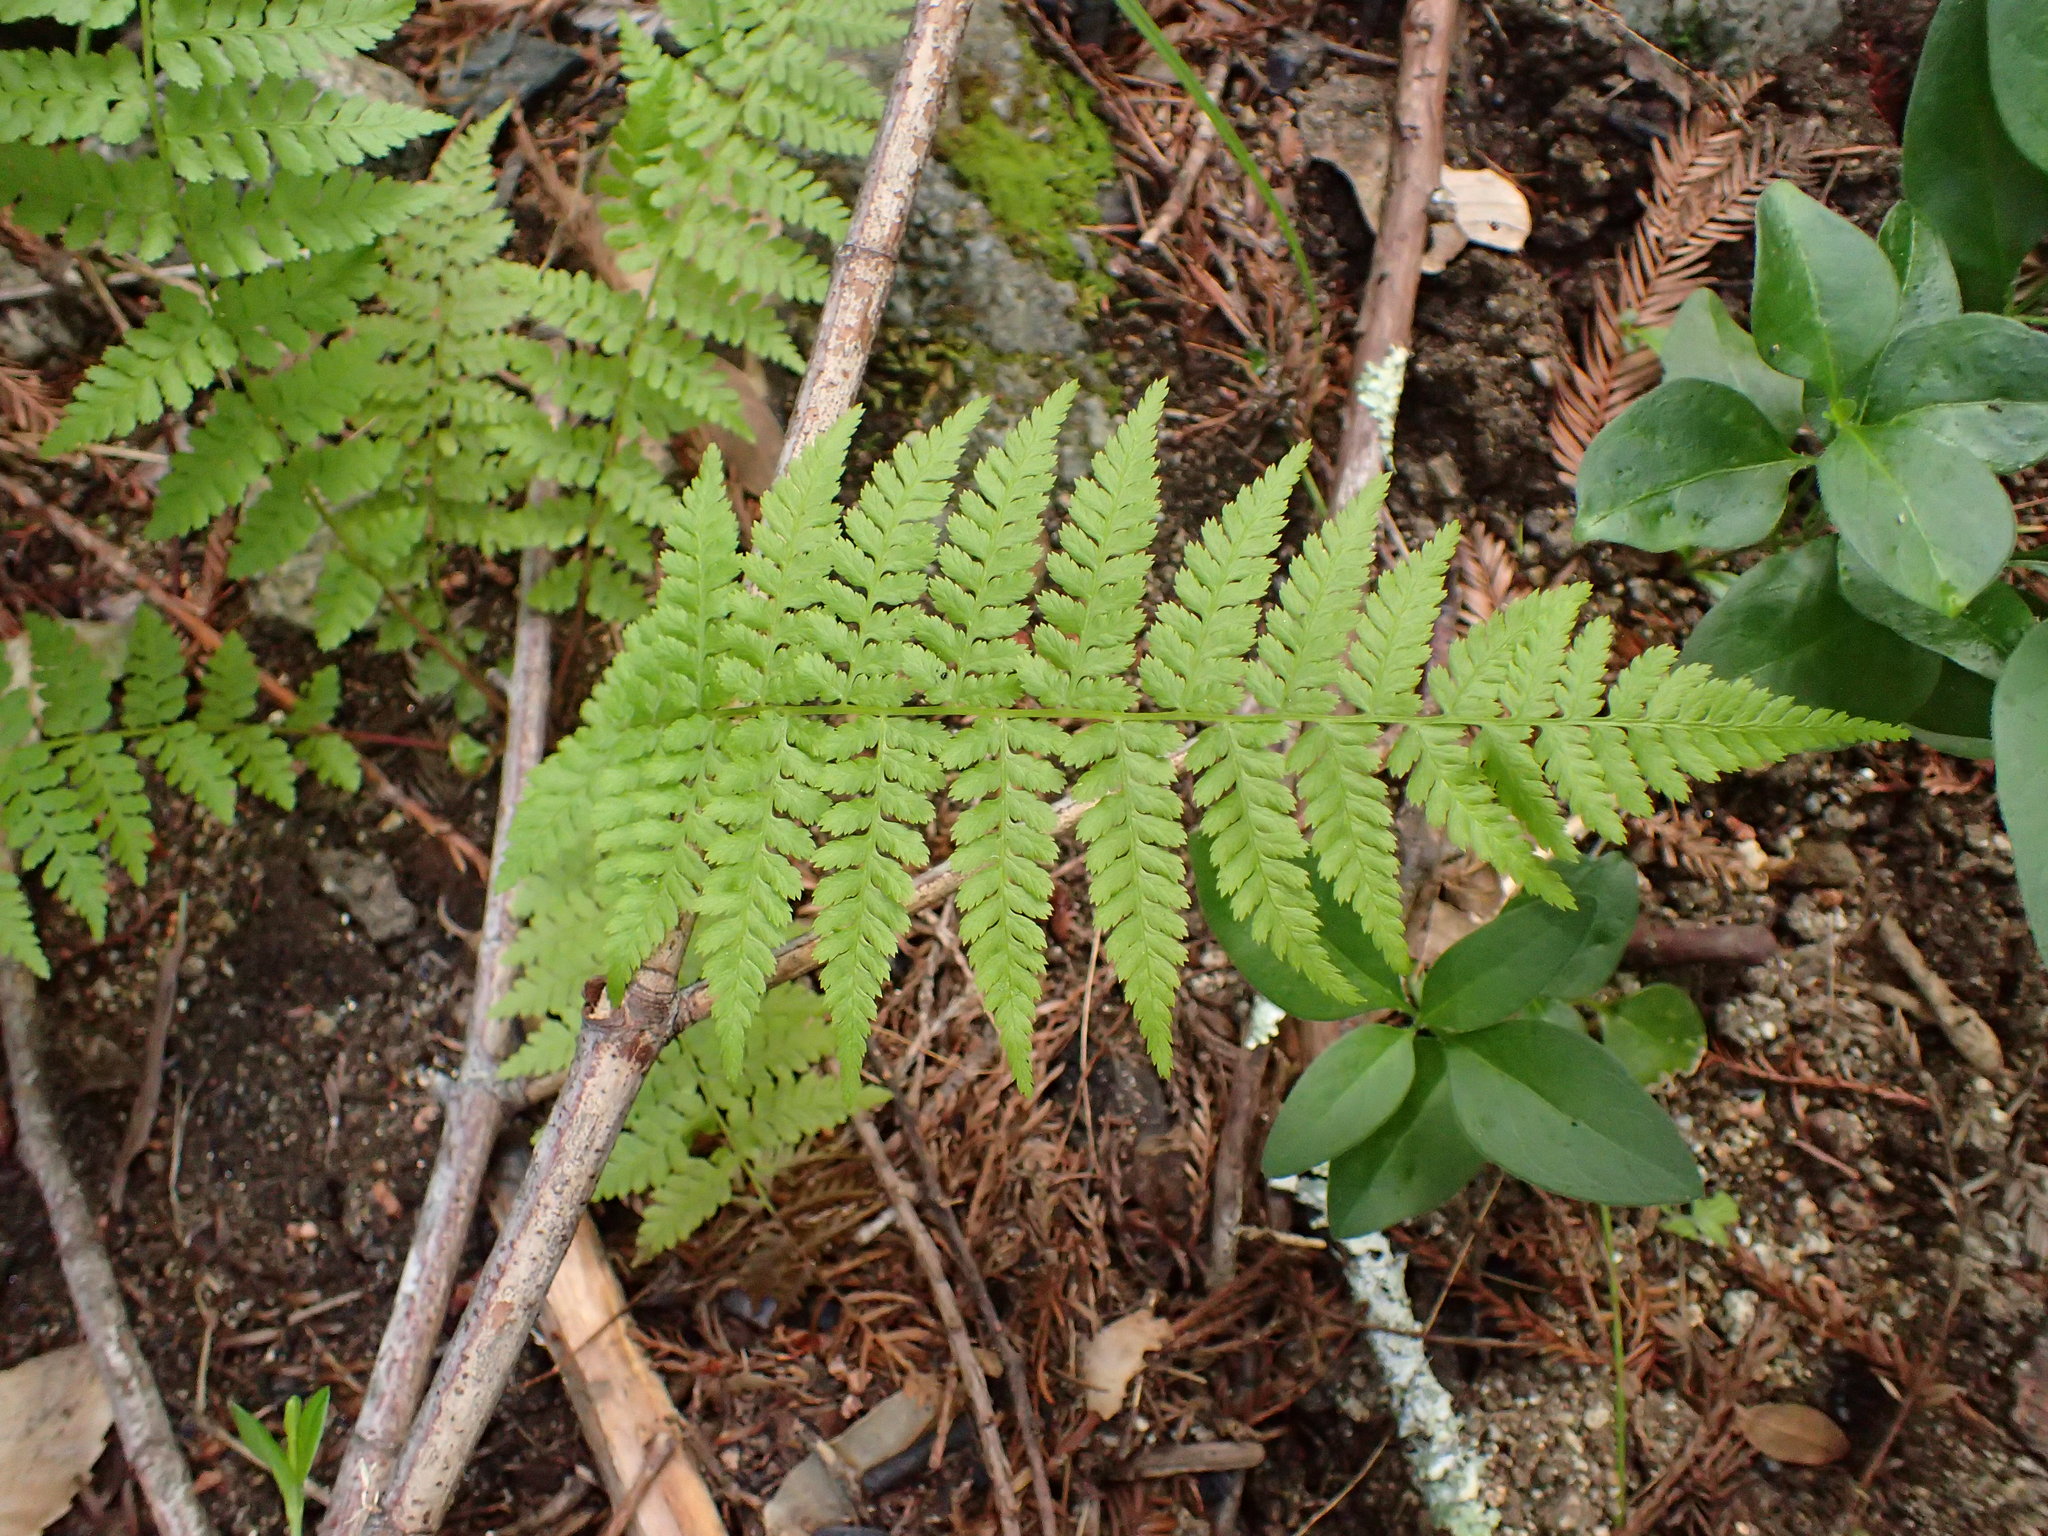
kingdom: Plantae
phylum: Tracheophyta
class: Polypodiopsida
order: Polypodiales
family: Athyriaceae
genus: Athyrium
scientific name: Athyrium filix-femina
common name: Lady fern
